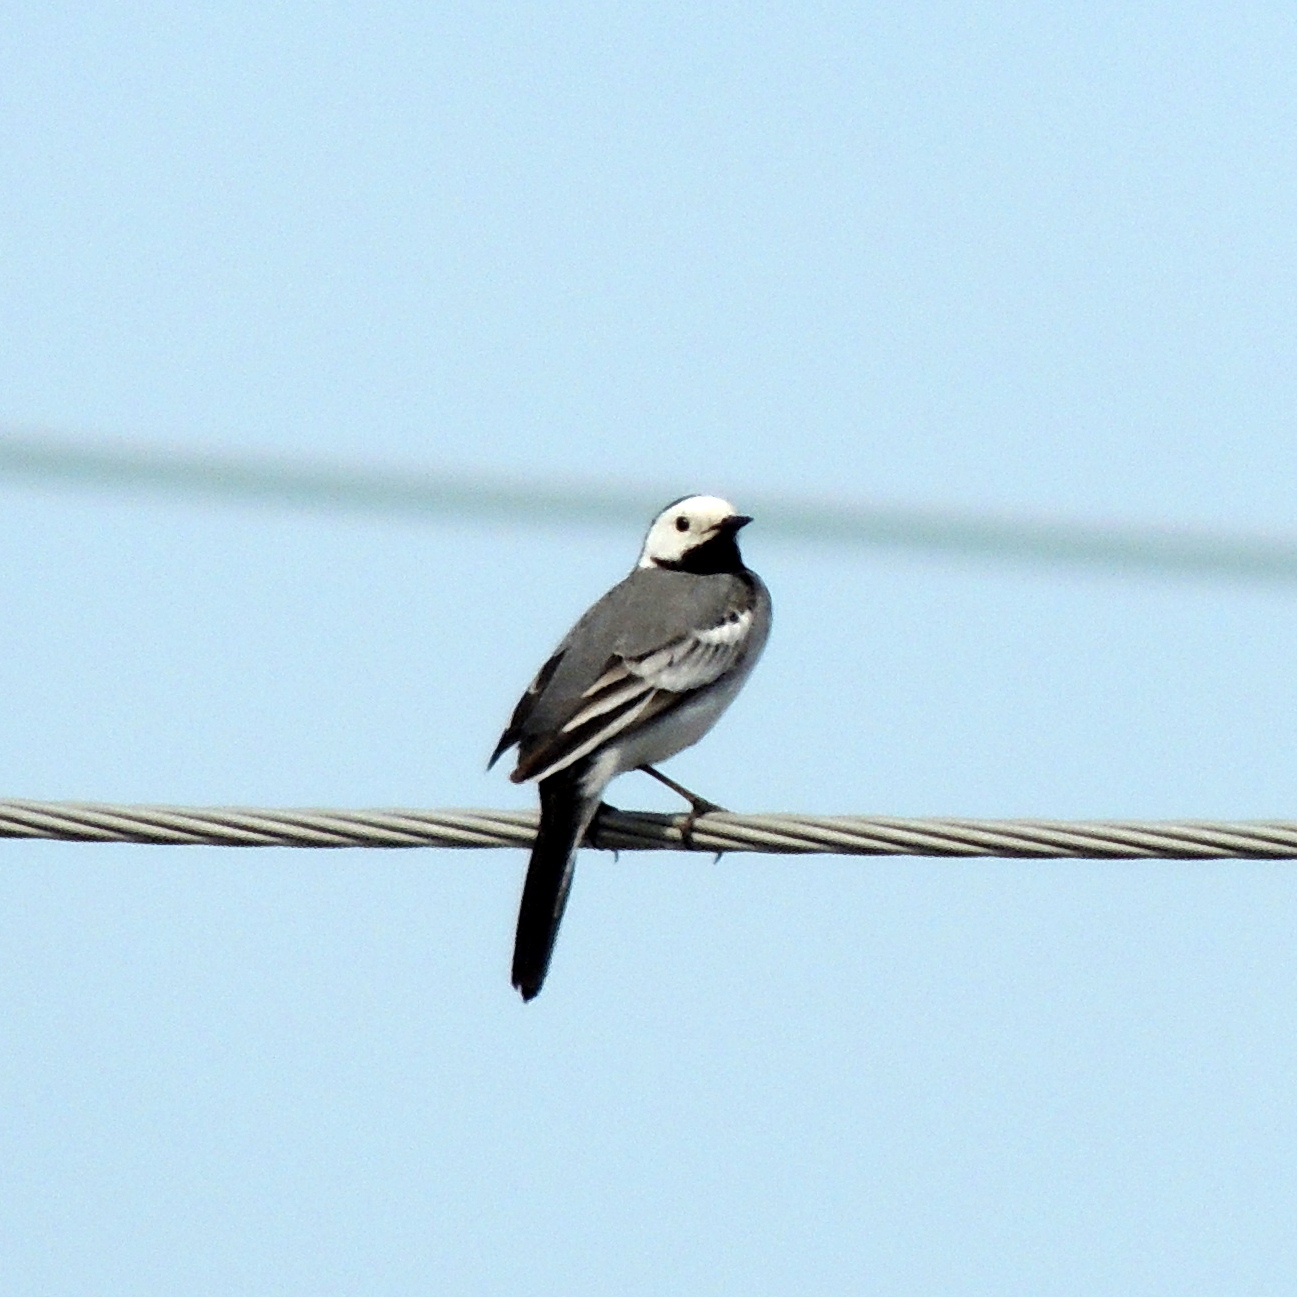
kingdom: Animalia
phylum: Chordata
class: Aves
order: Passeriformes
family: Motacillidae
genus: Motacilla
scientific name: Motacilla alba
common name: White wagtail
